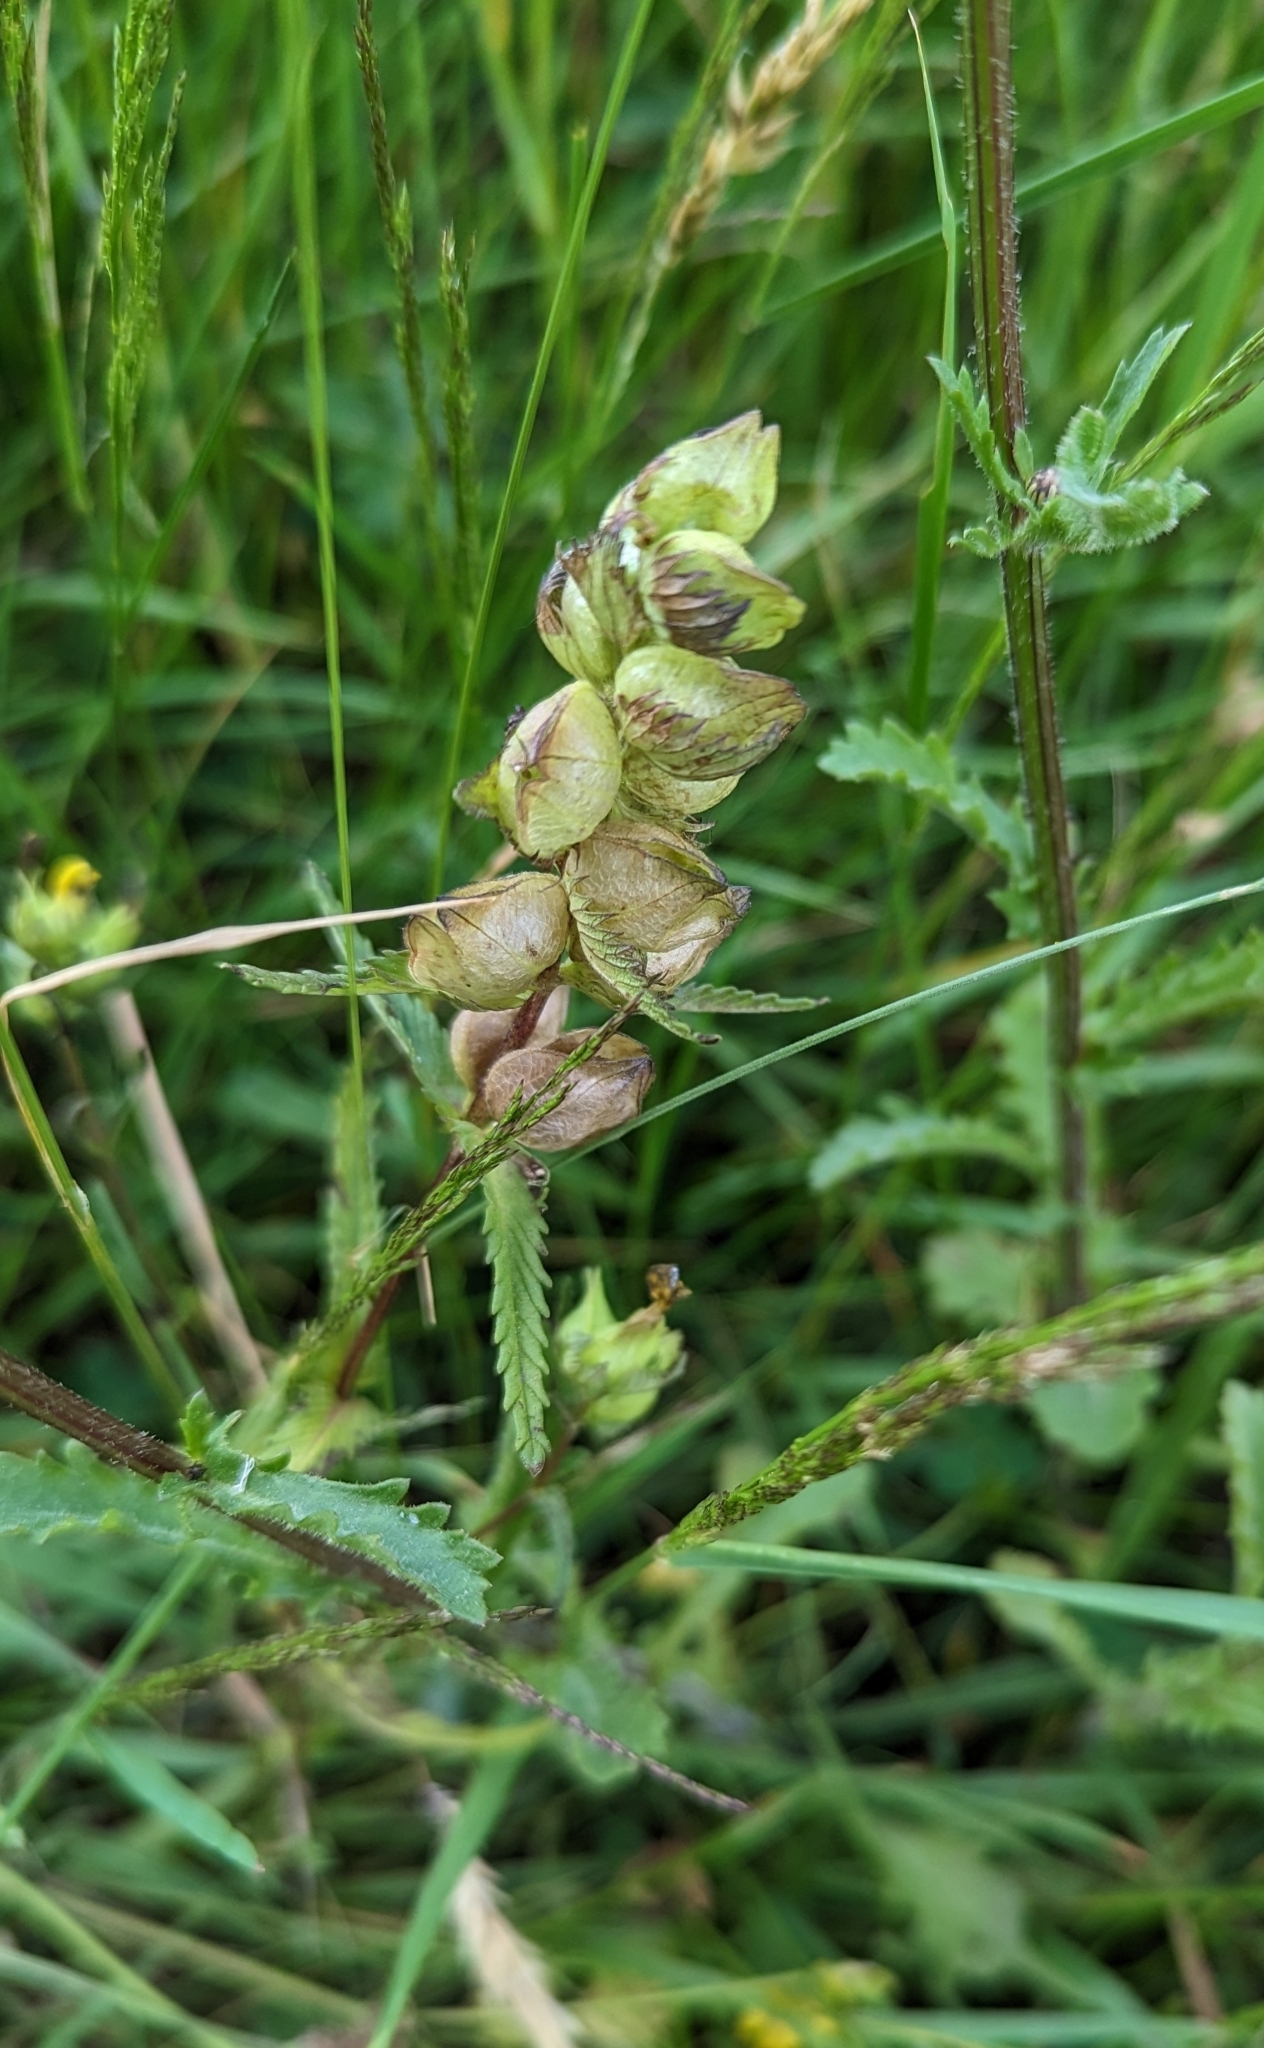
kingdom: Plantae
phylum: Tracheophyta
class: Magnoliopsida
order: Lamiales
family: Orobanchaceae
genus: Rhinanthus
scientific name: Rhinanthus minor
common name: Yellow-rattle
